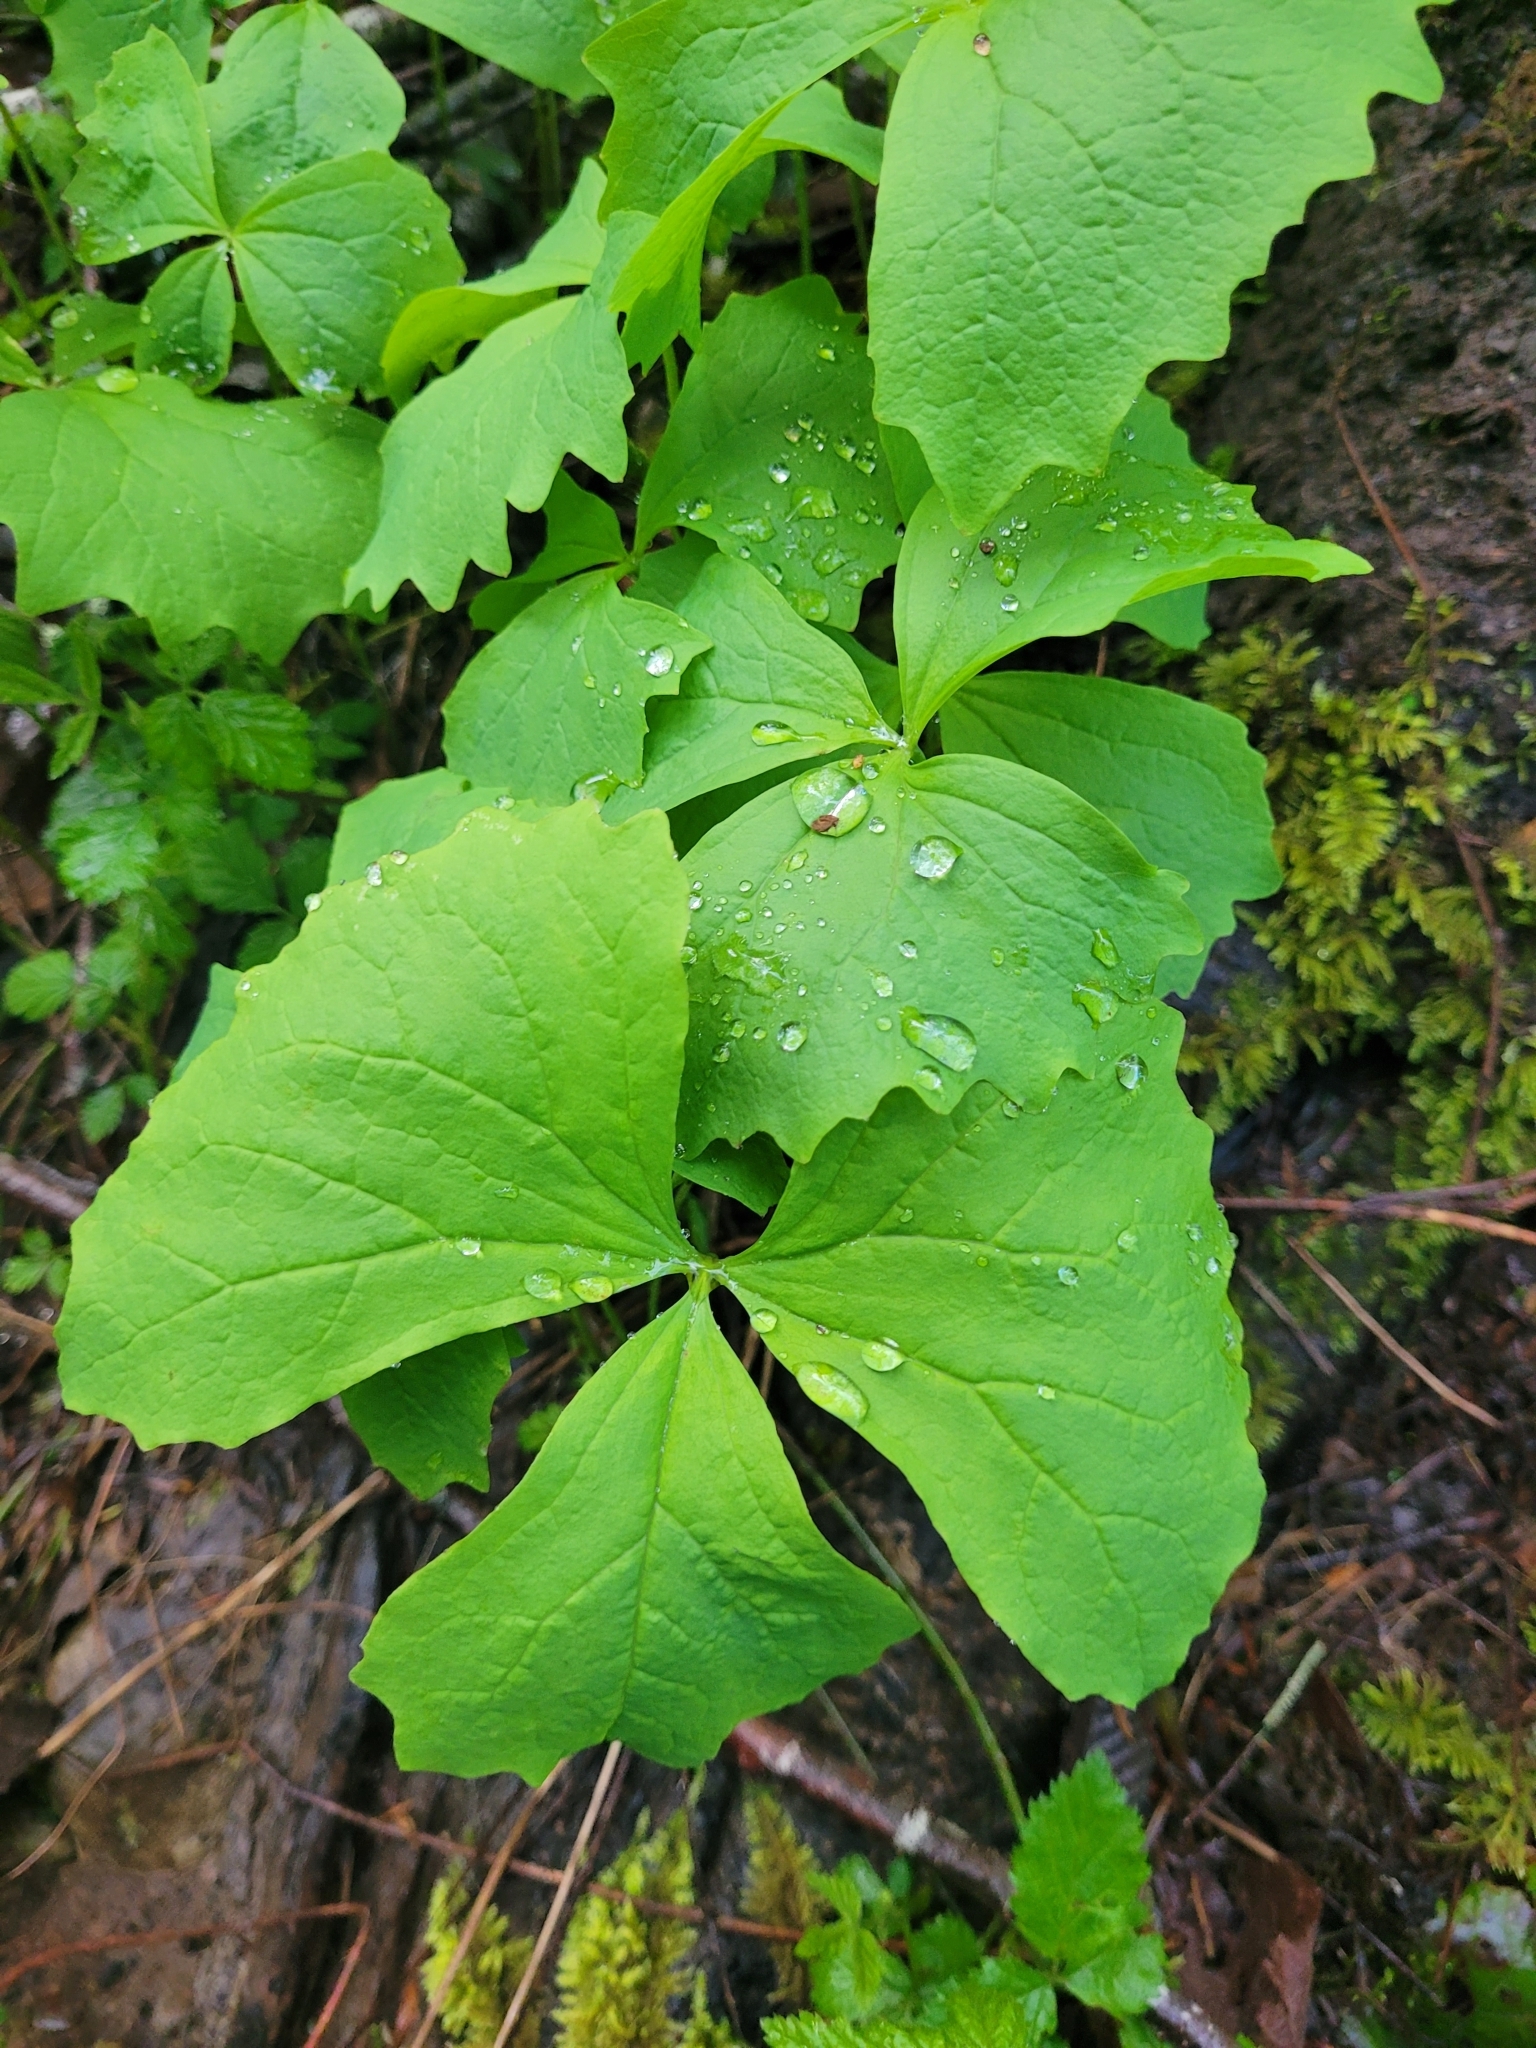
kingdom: Plantae
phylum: Tracheophyta
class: Magnoliopsida
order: Ranunculales
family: Berberidaceae
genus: Achlys
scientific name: Achlys triphylla
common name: Vanilla-leaf
